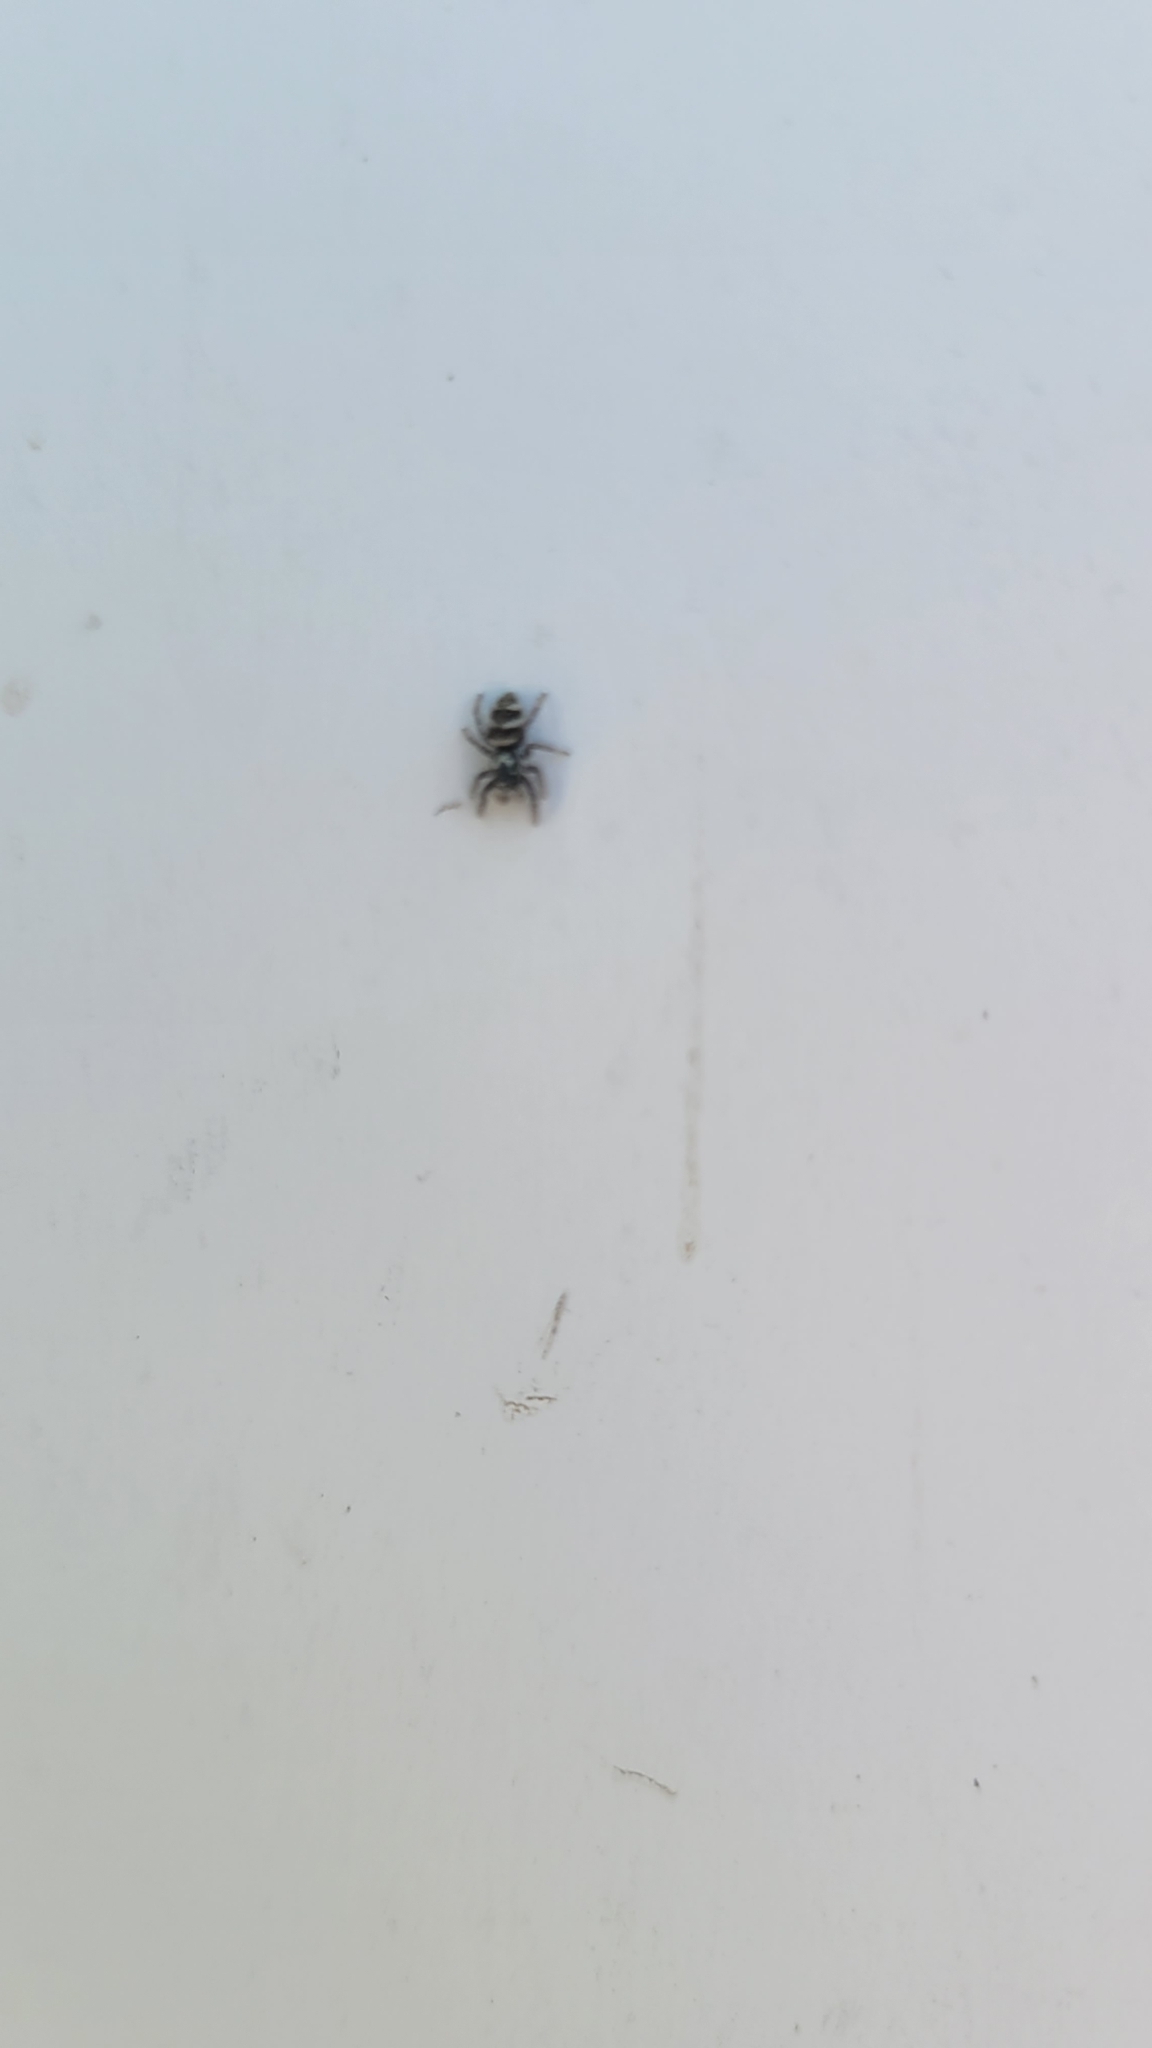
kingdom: Animalia
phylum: Arthropoda
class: Arachnida
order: Araneae
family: Salticidae
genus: Salticus
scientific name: Salticus scenicus
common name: Zebra jumper
